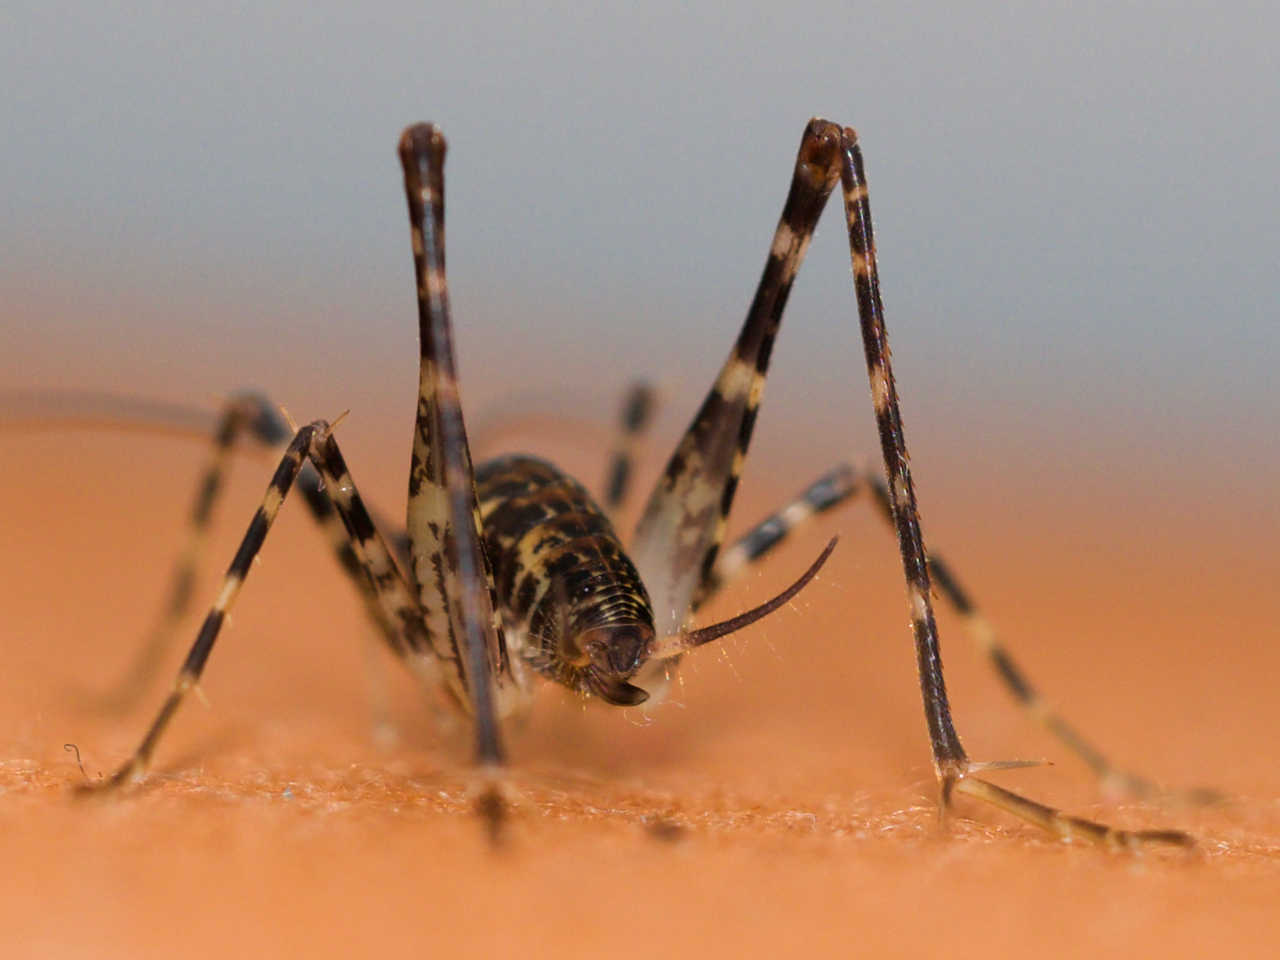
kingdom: Animalia
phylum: Arthropoda
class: Insecta
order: Orthoptera
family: Rhaphidophoridae
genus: Diestrammena
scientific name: Diestrammena japanica
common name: Japanese camel cricket
